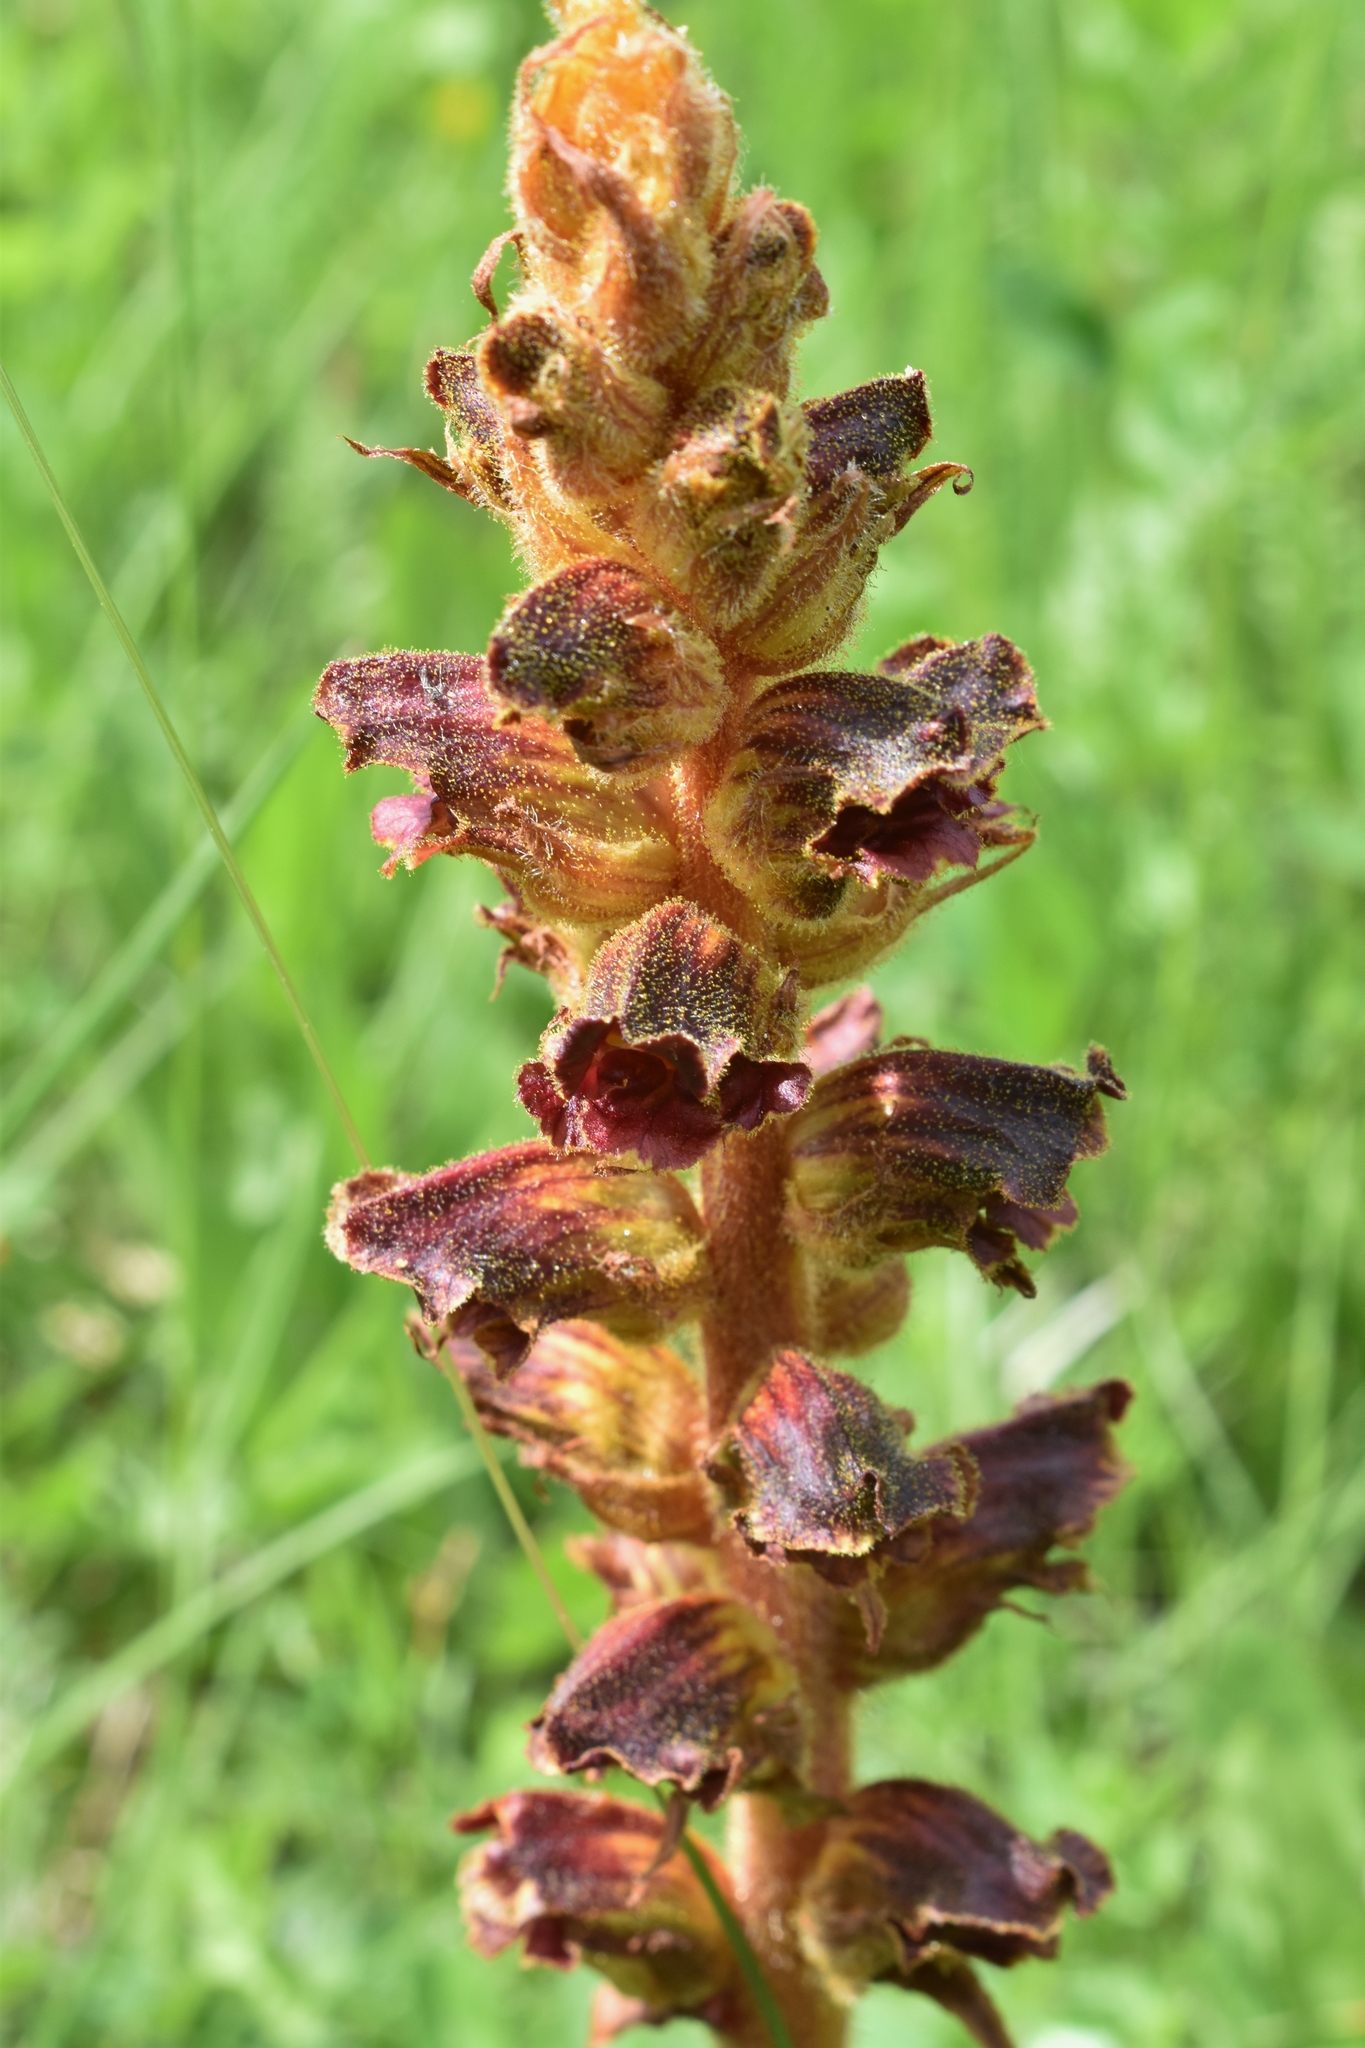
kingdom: Plantae
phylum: Tracheophyta
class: Magnoliopsida
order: Lamiales
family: Orobanchaceae
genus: Orobanche
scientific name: Orobanche gracilis
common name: Slender broomrape
